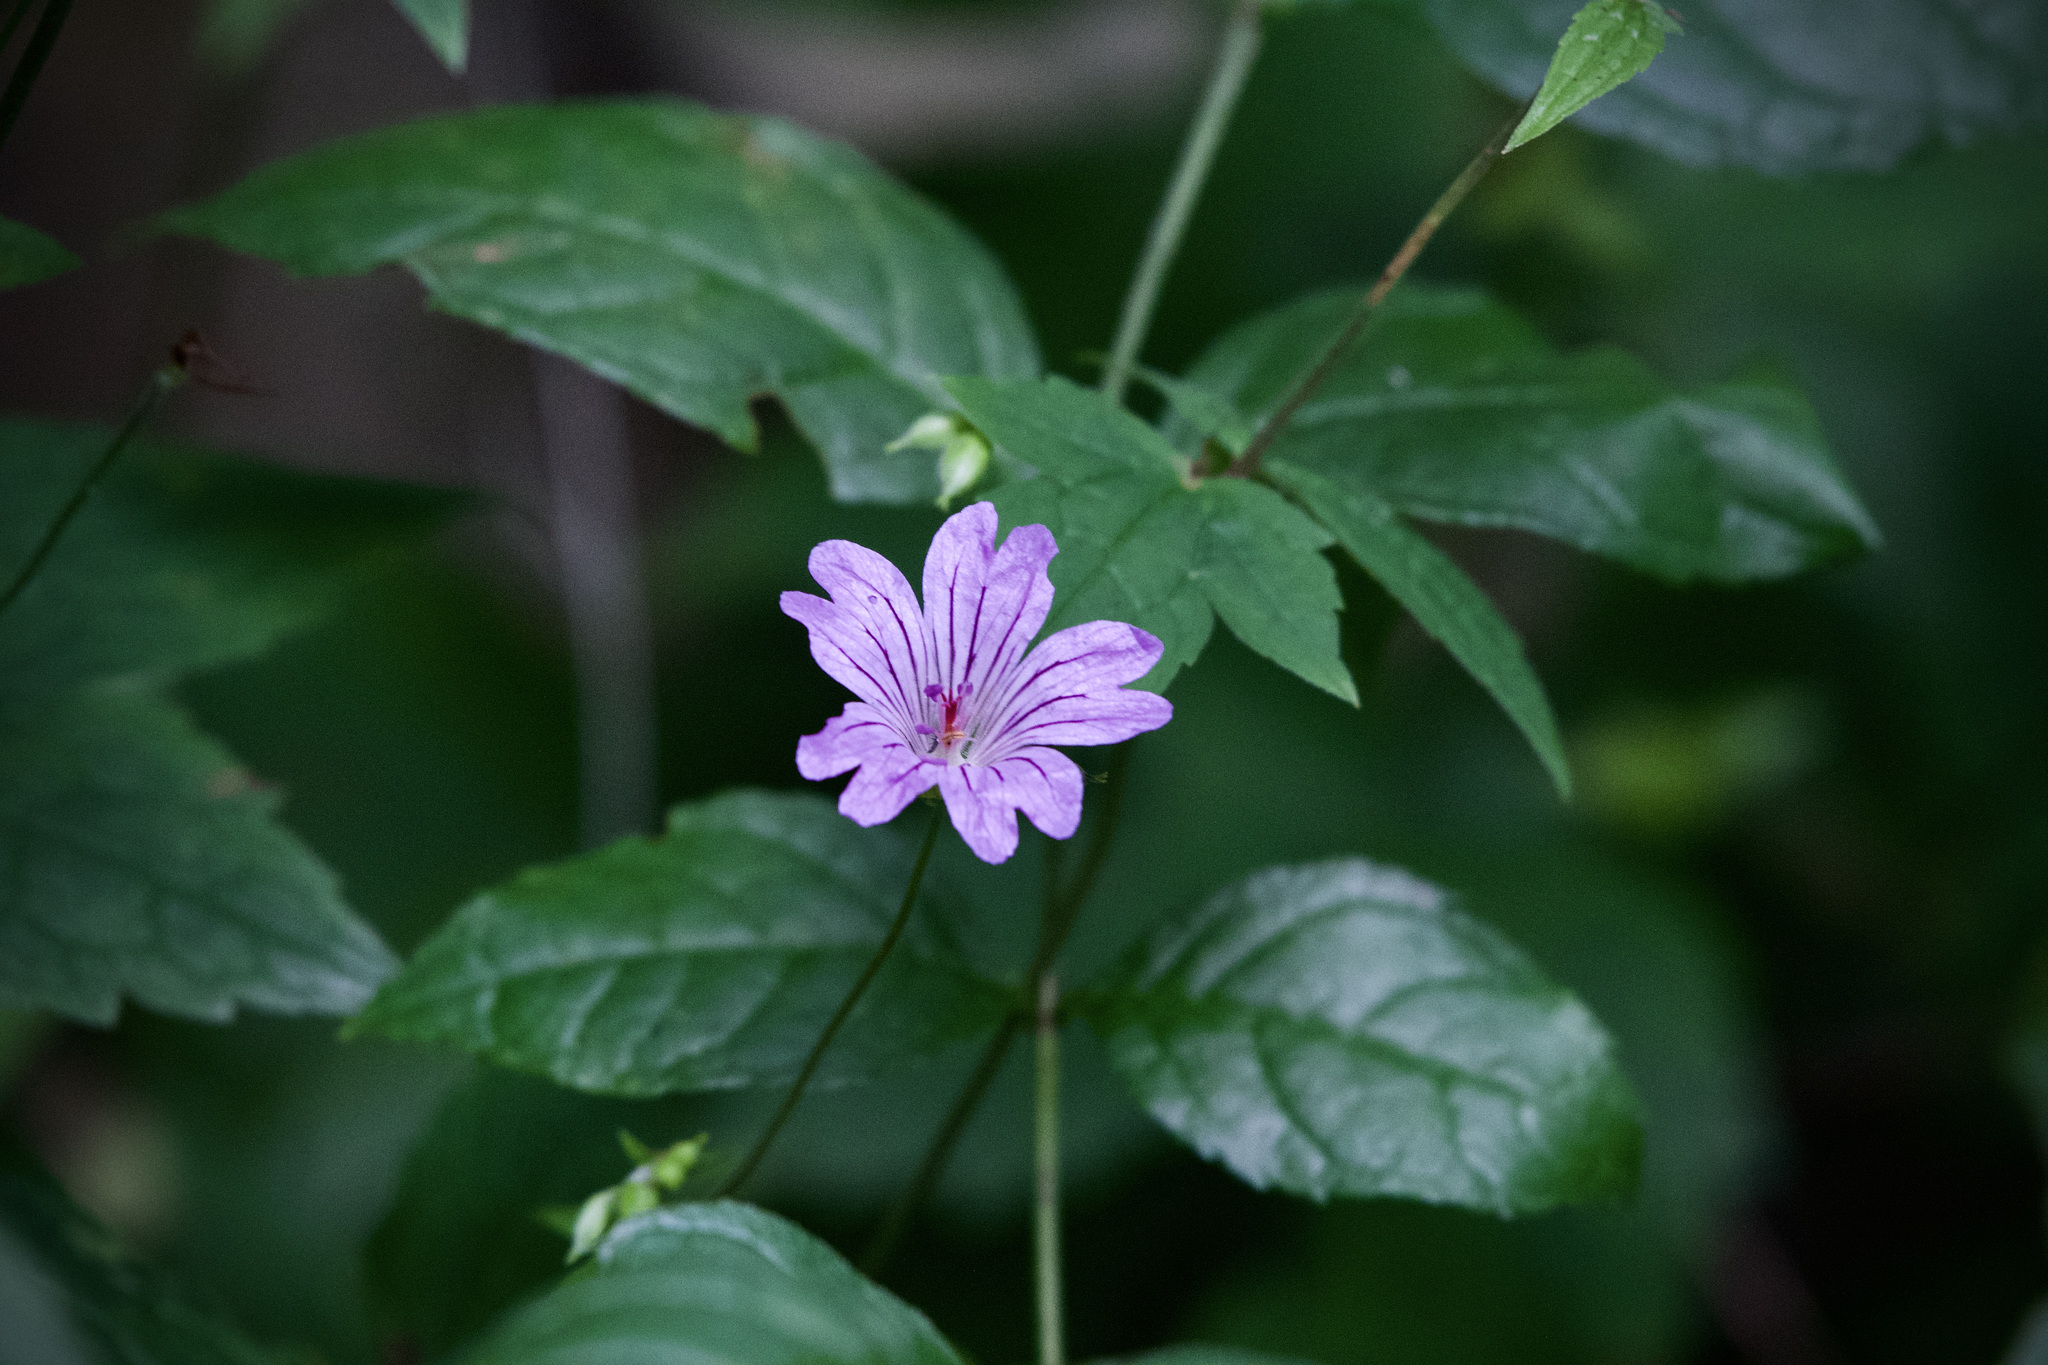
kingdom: Plantae
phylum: Tracheophyta
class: Magnoliopsida
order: Geraniales
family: Geraniaceae
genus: Geranium
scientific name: Geranium nodosum
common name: Knotted crane's-bill
